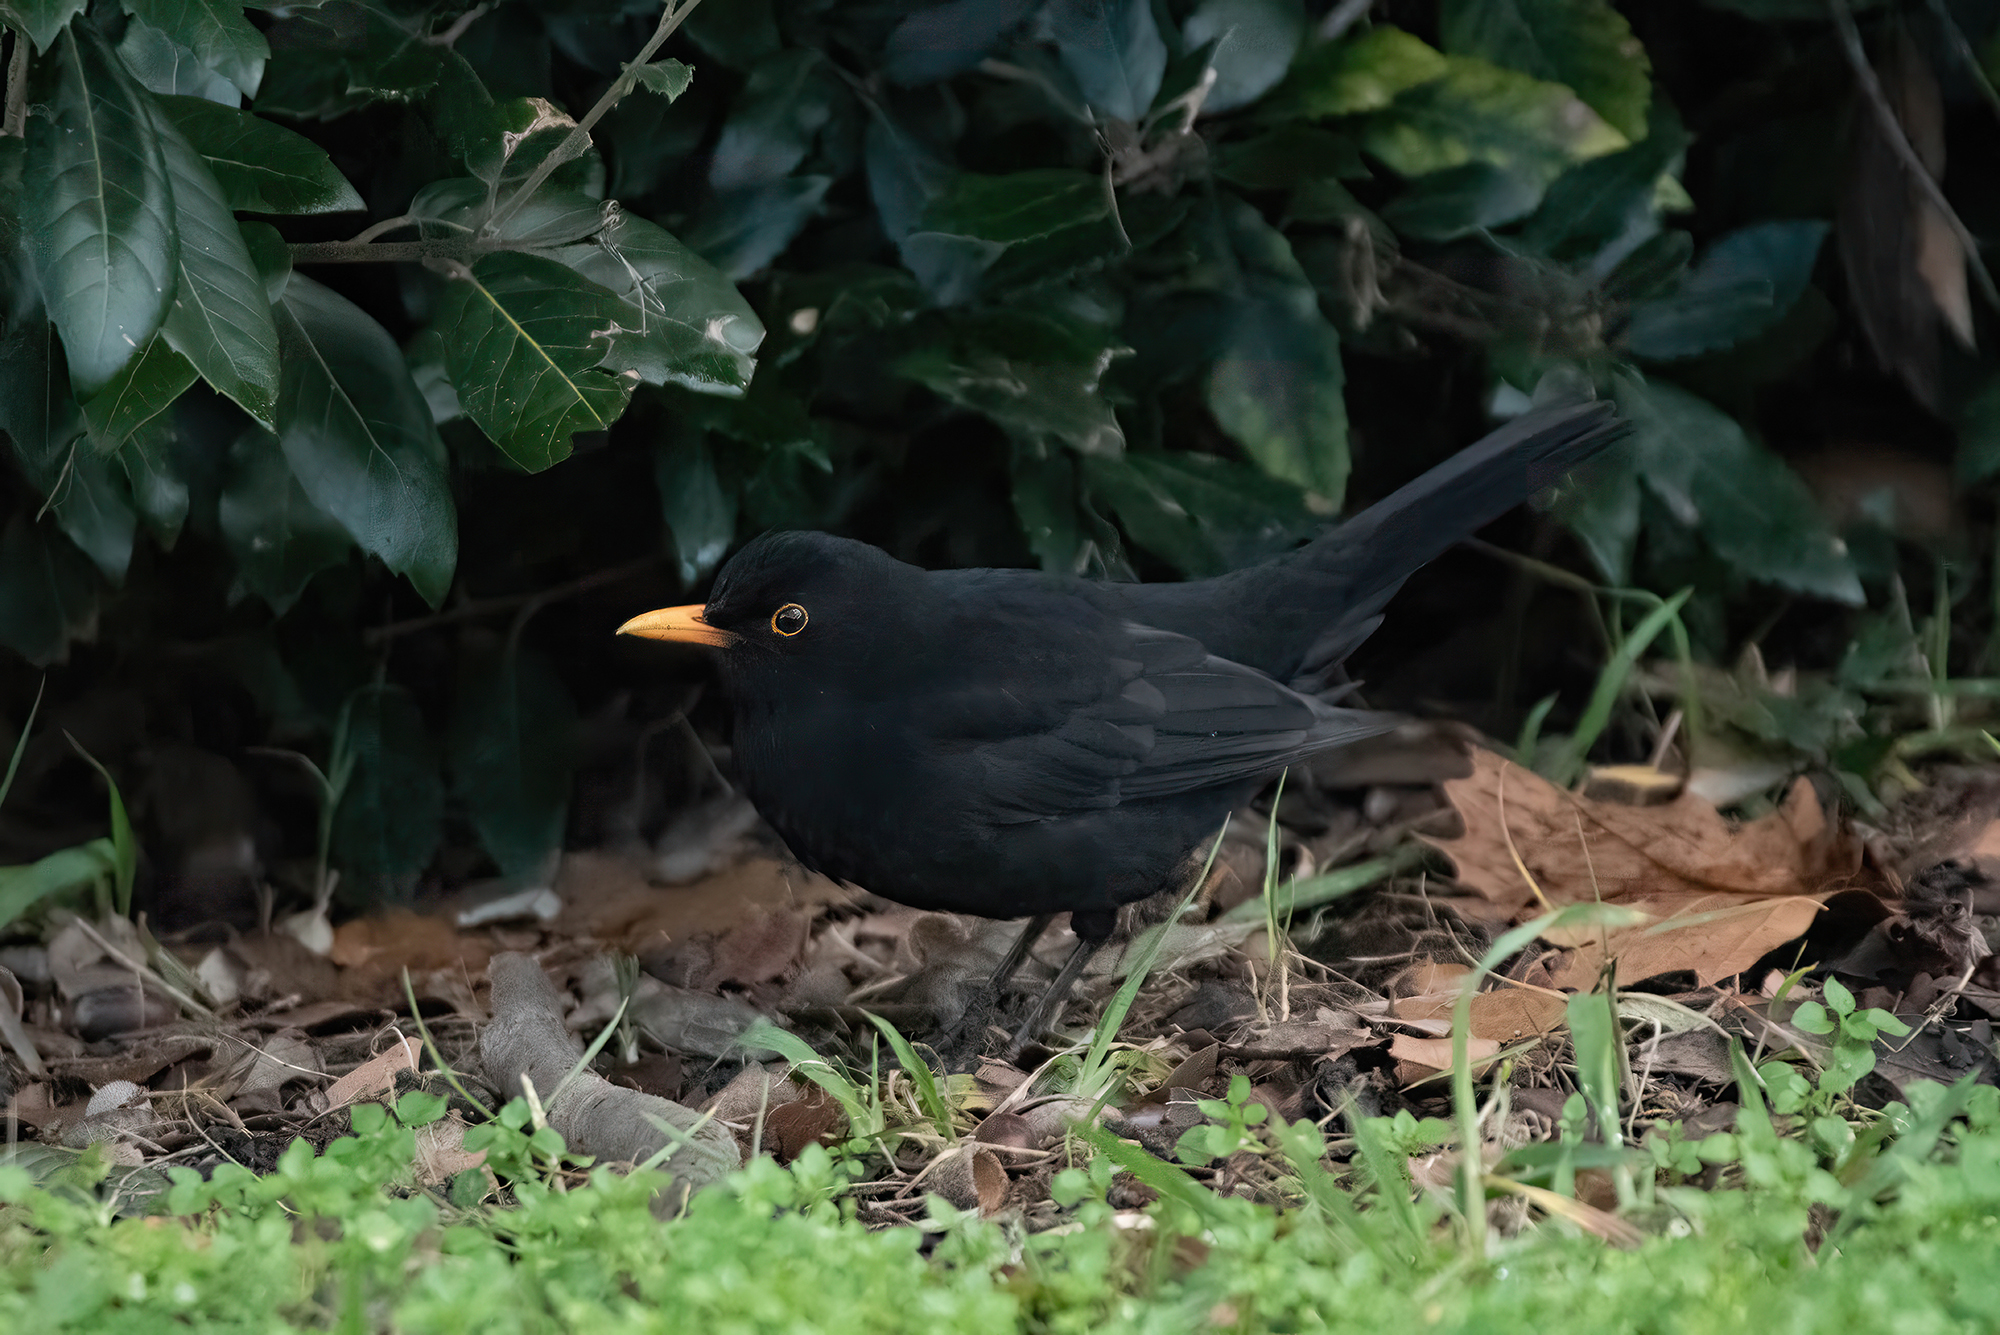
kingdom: Animalia
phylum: Chordata
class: Aves
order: Passeriformes
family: Turdidae
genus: Turdus
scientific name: Turdus merula
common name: Common blackbird
